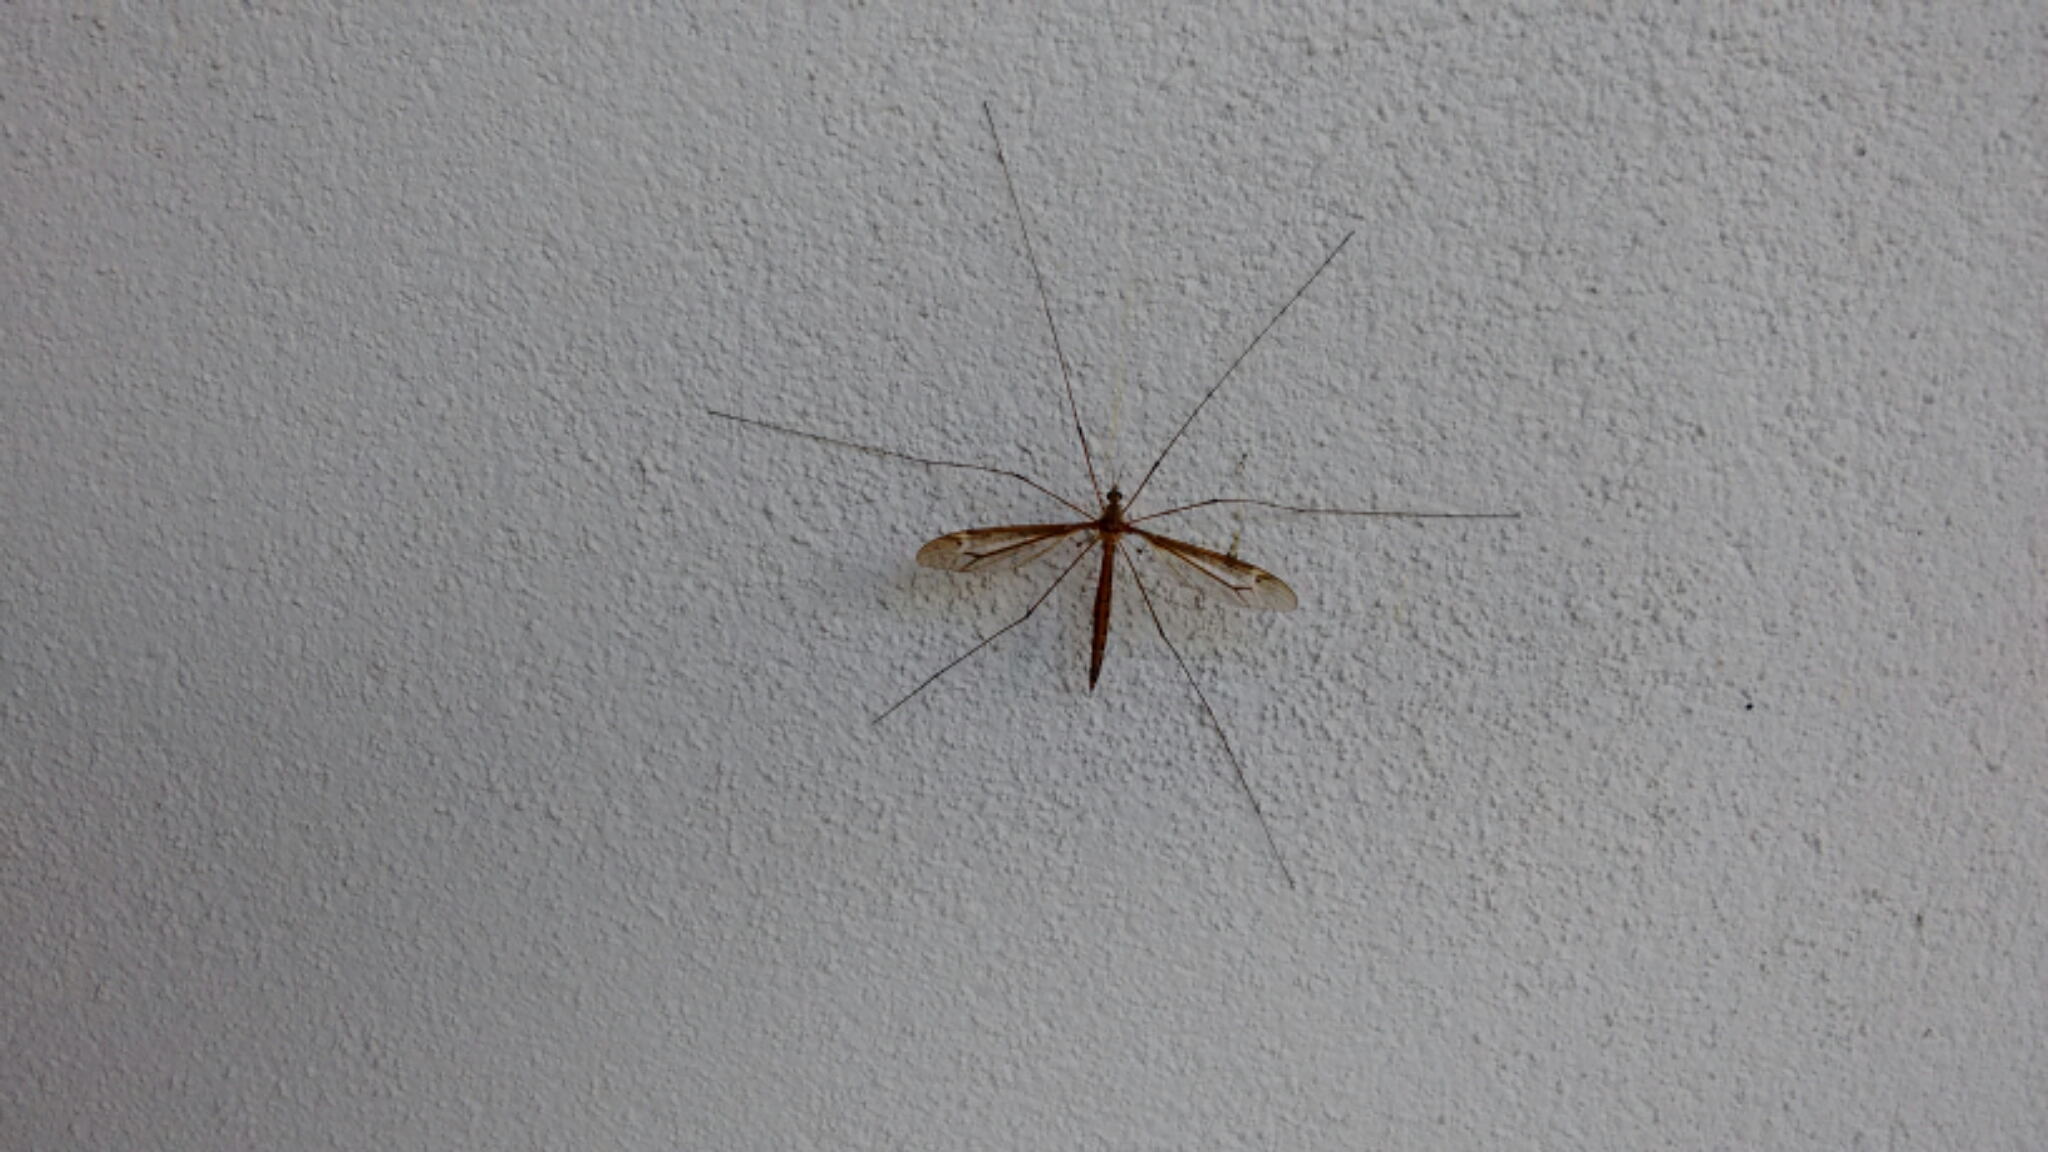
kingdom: Animalia
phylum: Arthropoda
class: Insecta
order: Diptera
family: Tipulidae
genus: Tipula
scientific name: Tipula tricolor
